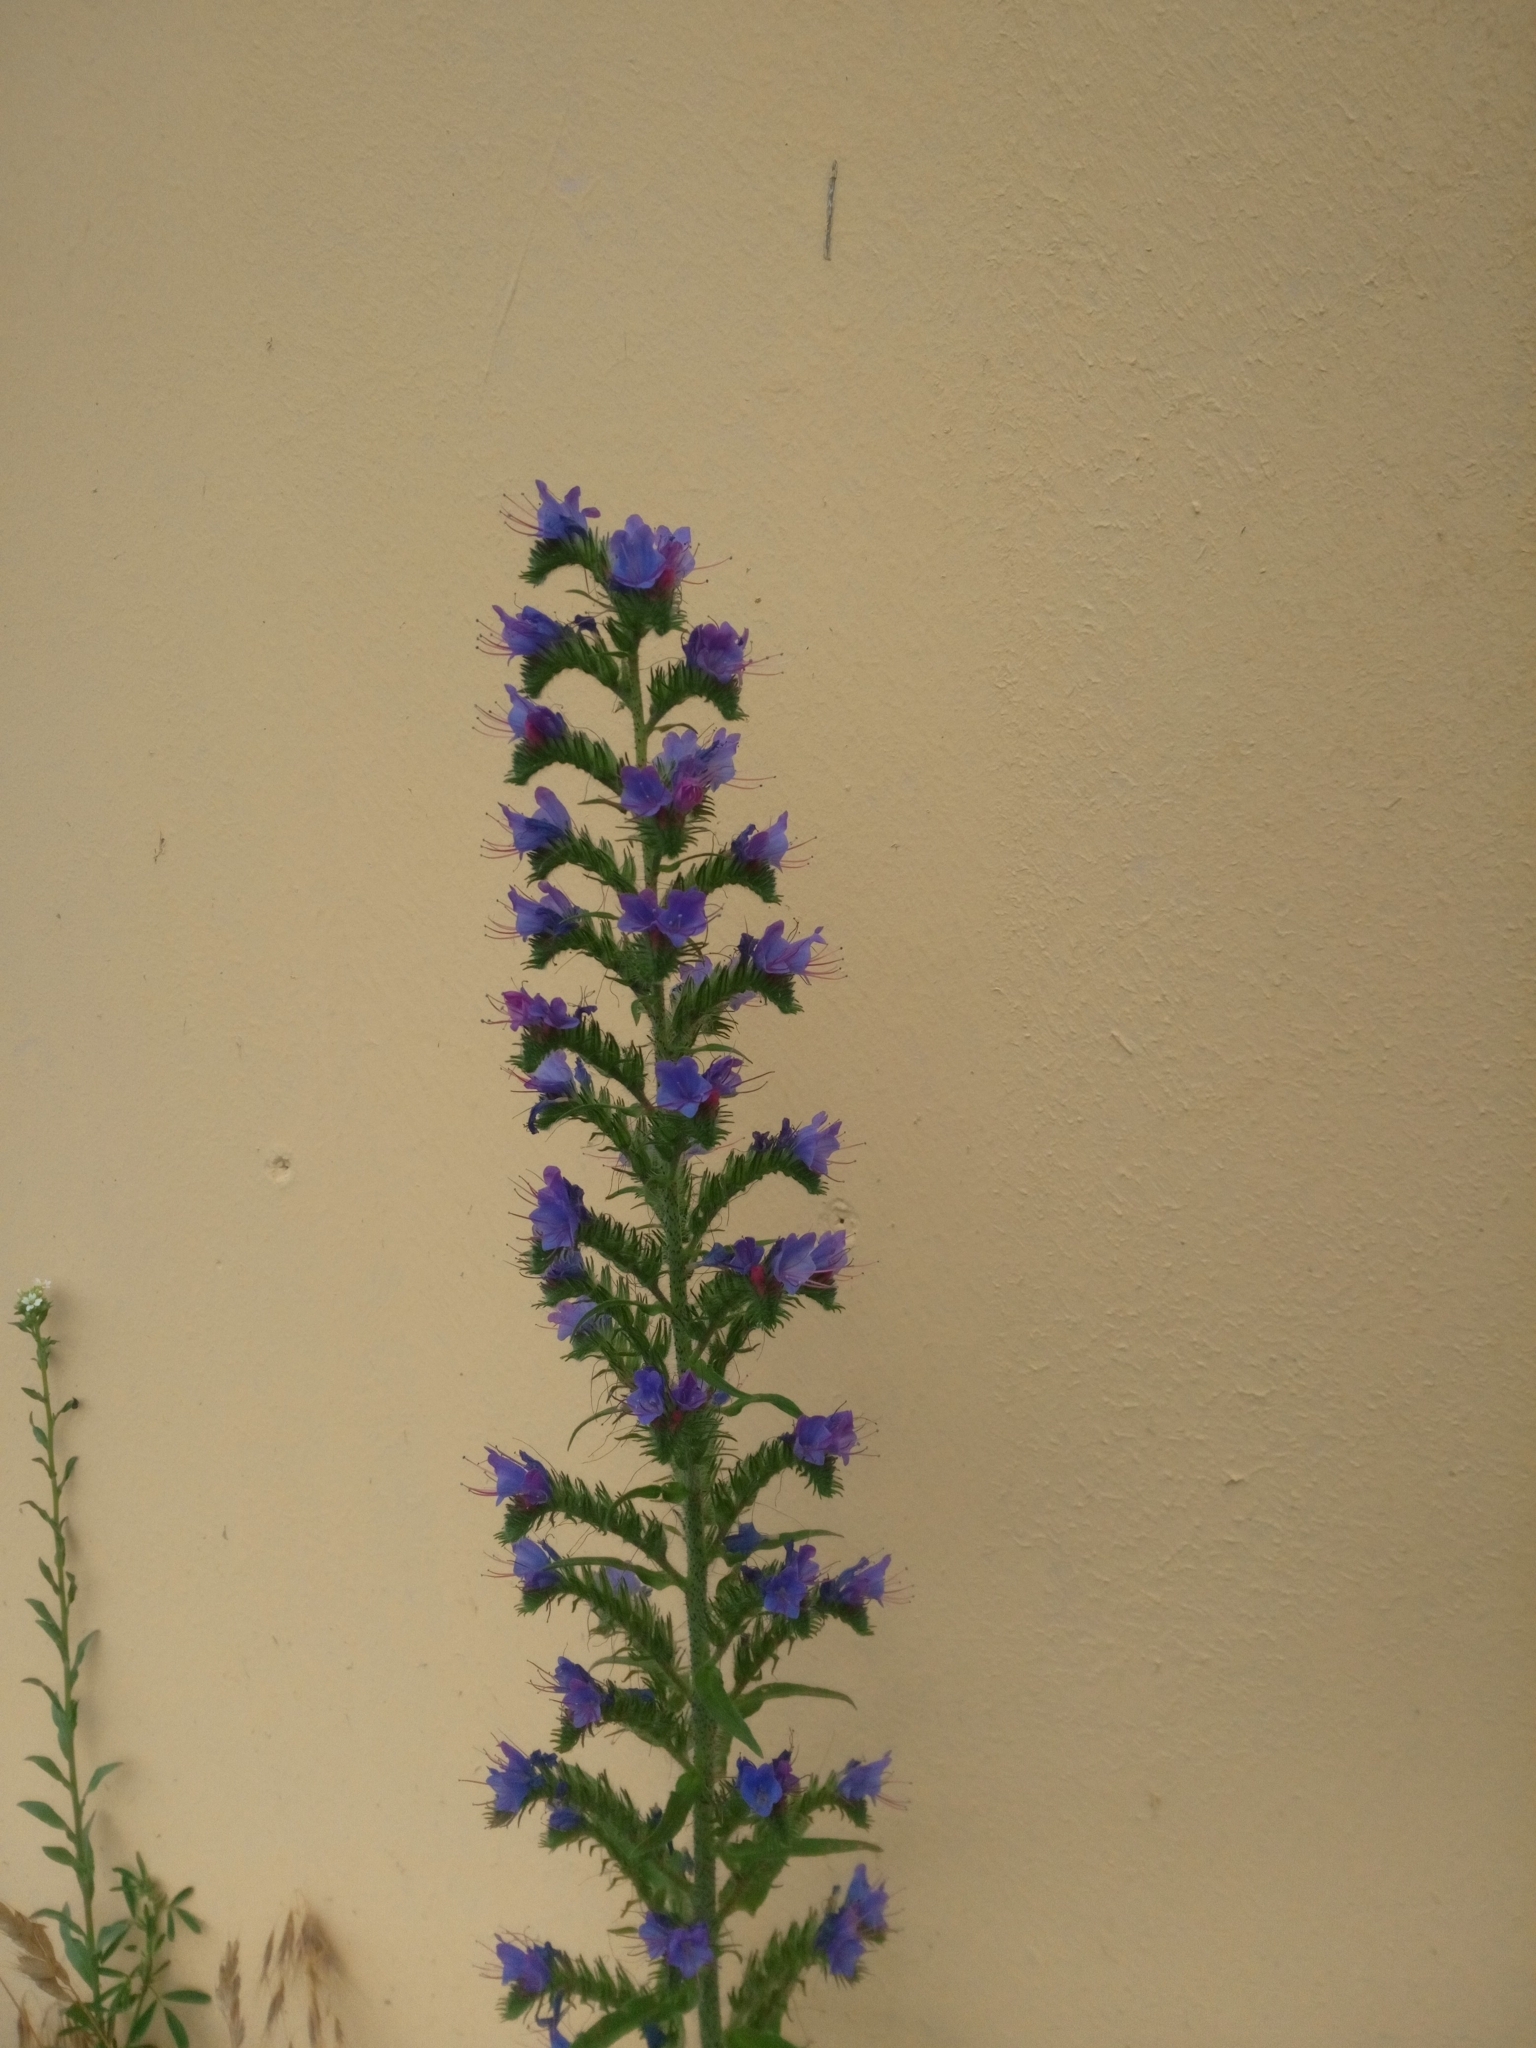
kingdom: Plantae
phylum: Tracheophyta
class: Magnoliopsida
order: Boraginales
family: Boraginaceae
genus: Echium
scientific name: Echium vulgare
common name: Common viper's bugloss
